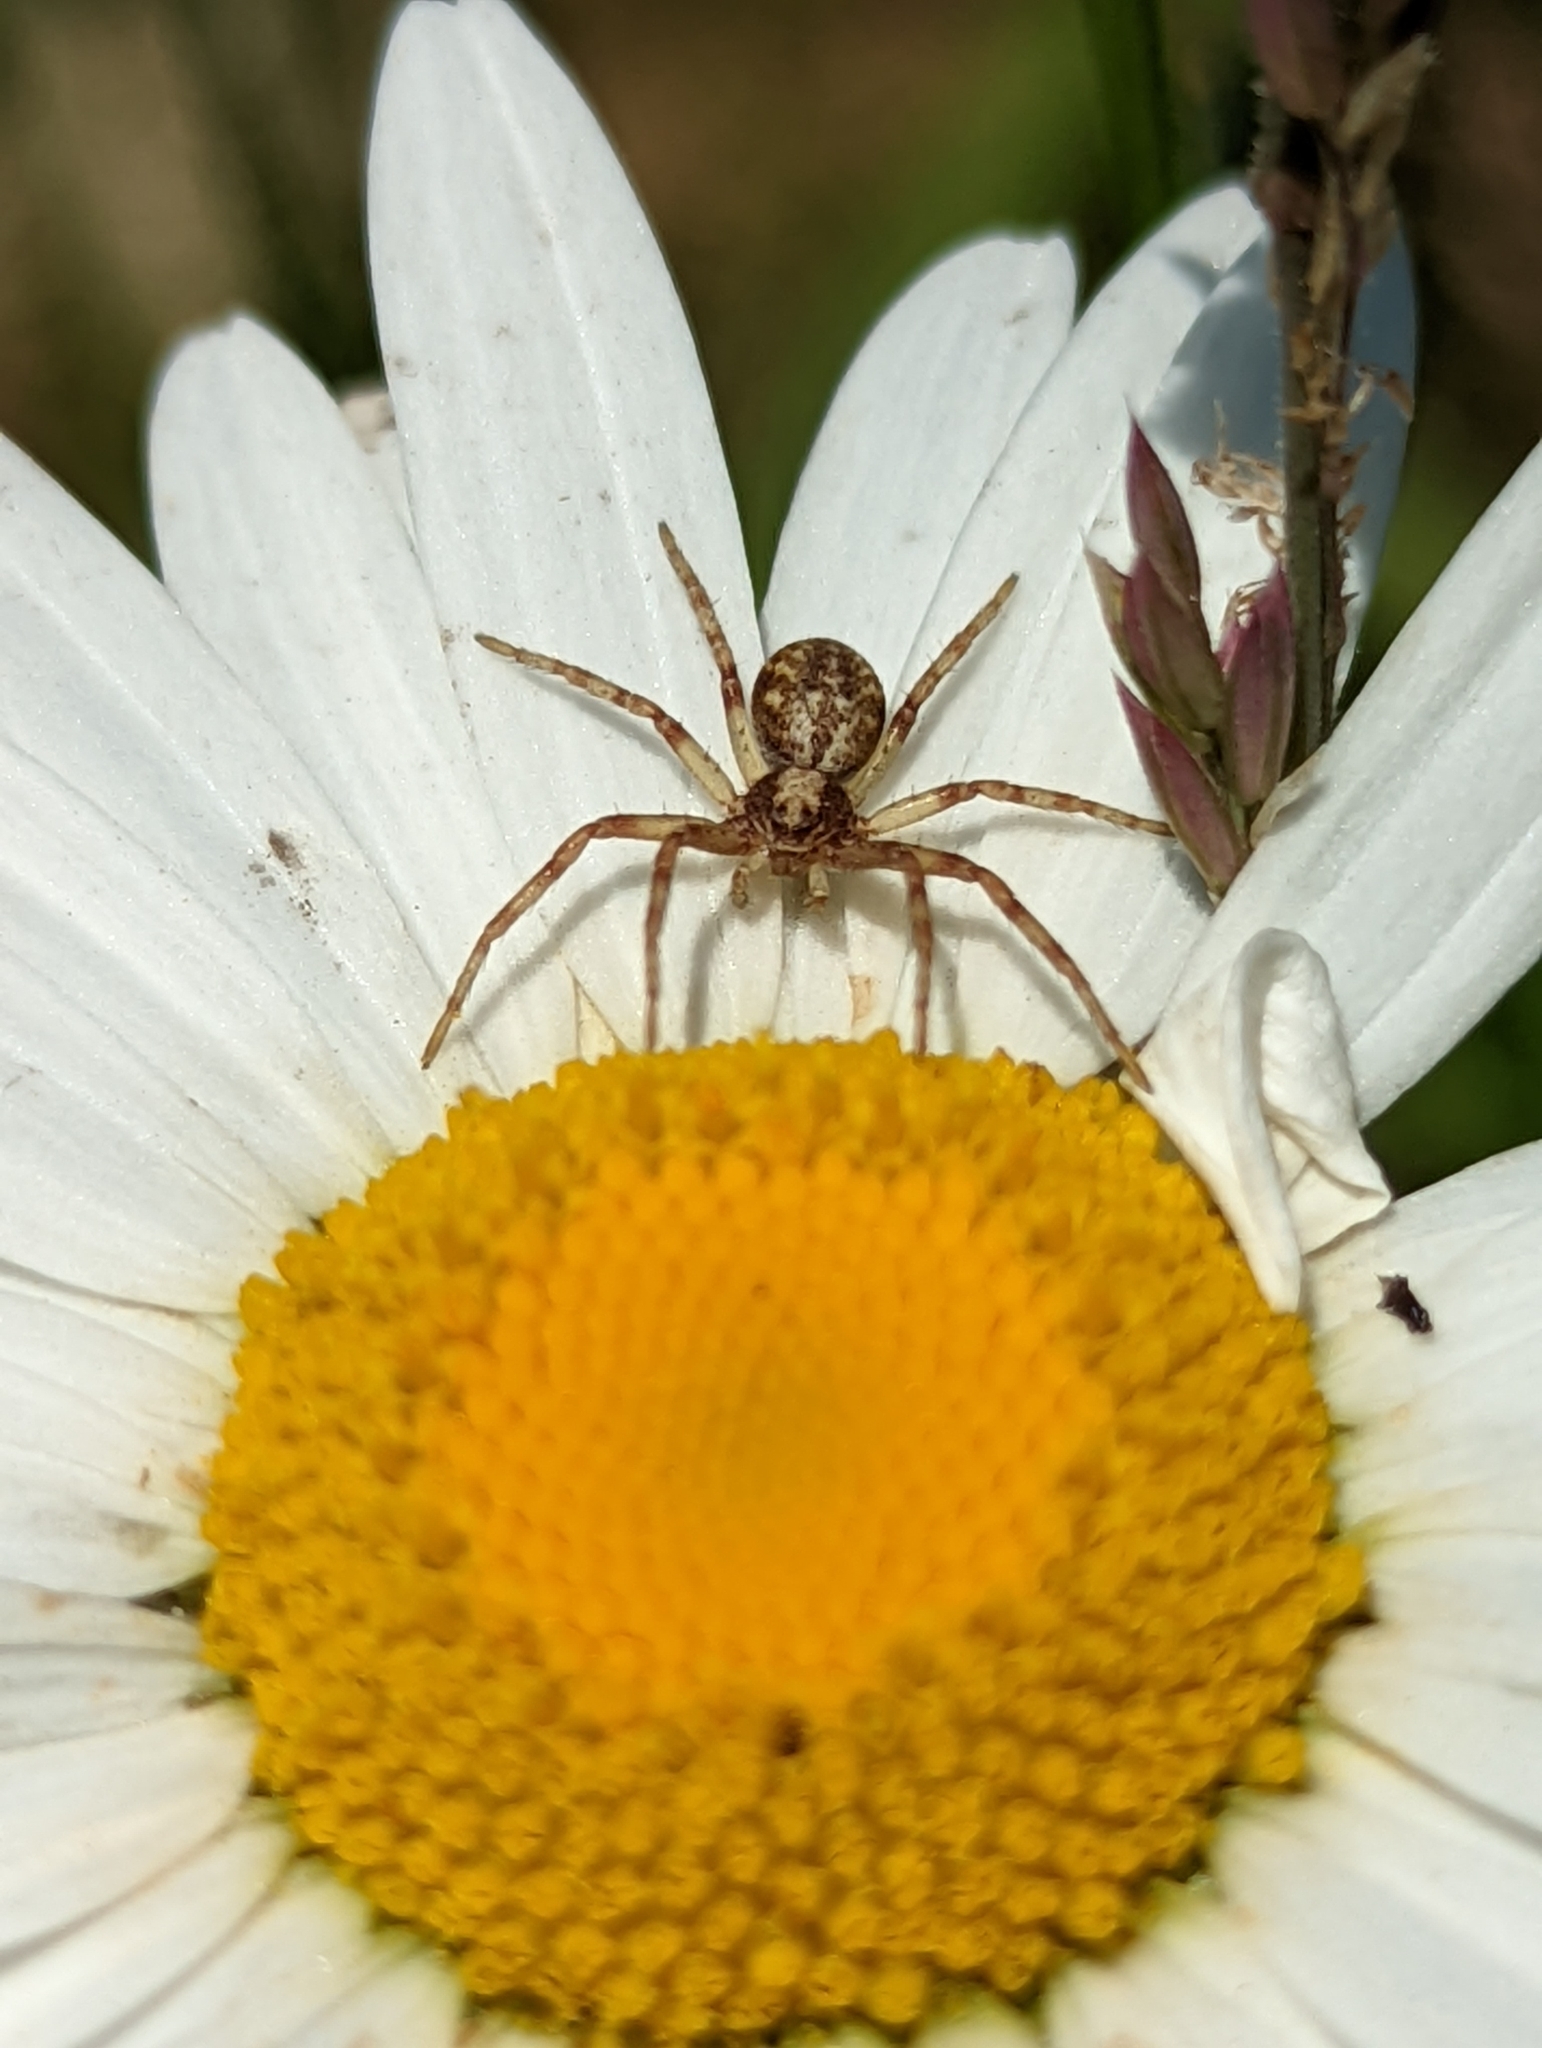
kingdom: Animalia
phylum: Arthropoda
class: Arachnida
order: Araneae
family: Philodromidae
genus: Philodromus
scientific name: Philodromus
